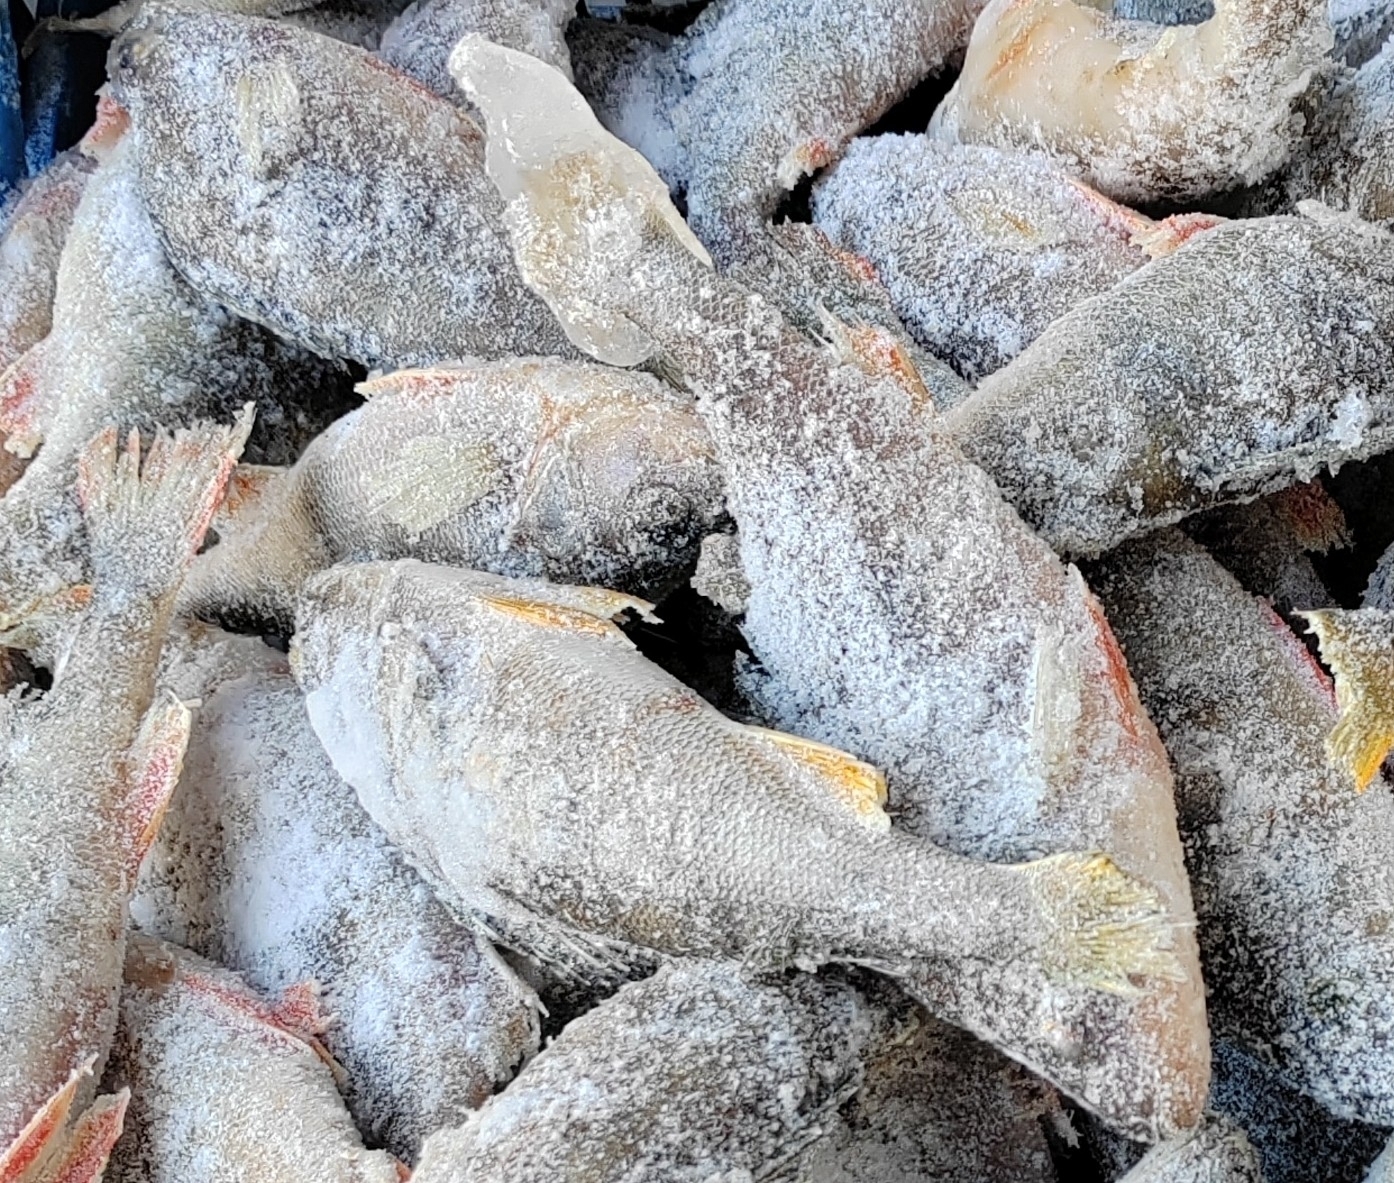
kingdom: Animalia
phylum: Chordata
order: Perciformes
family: Percidae
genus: Perca
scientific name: Perca fluviatilis
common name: Perch
